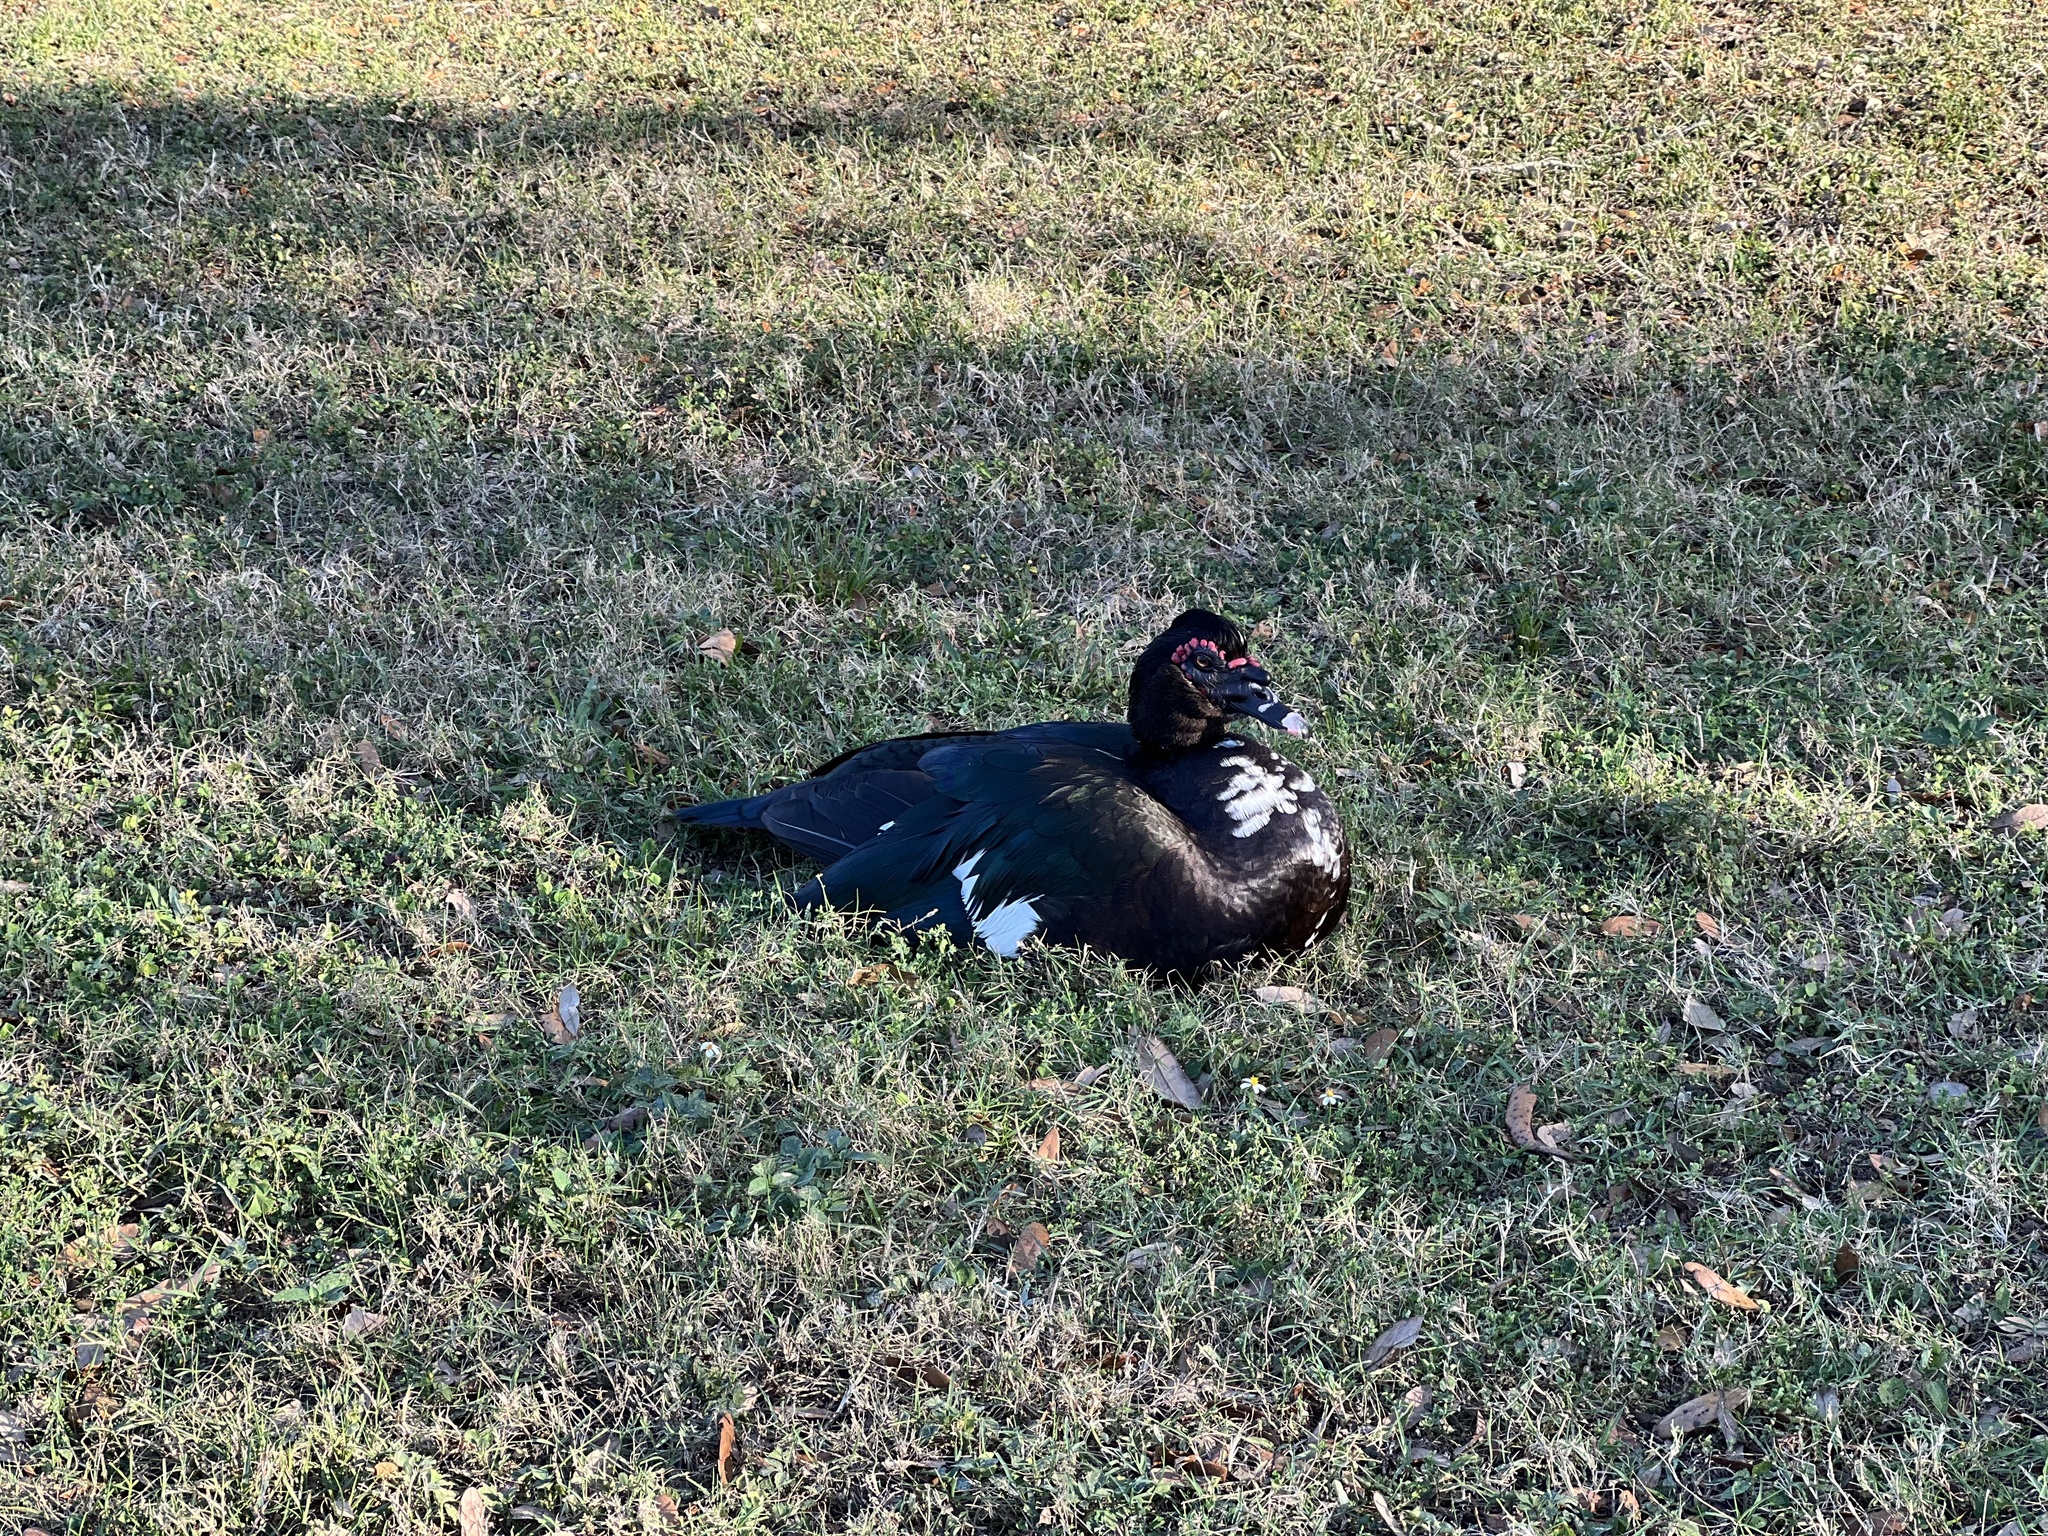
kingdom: Animalia
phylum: Chordata
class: Aves
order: Anseriformes
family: Anatidae
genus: Cairina
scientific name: Cairina moschata
